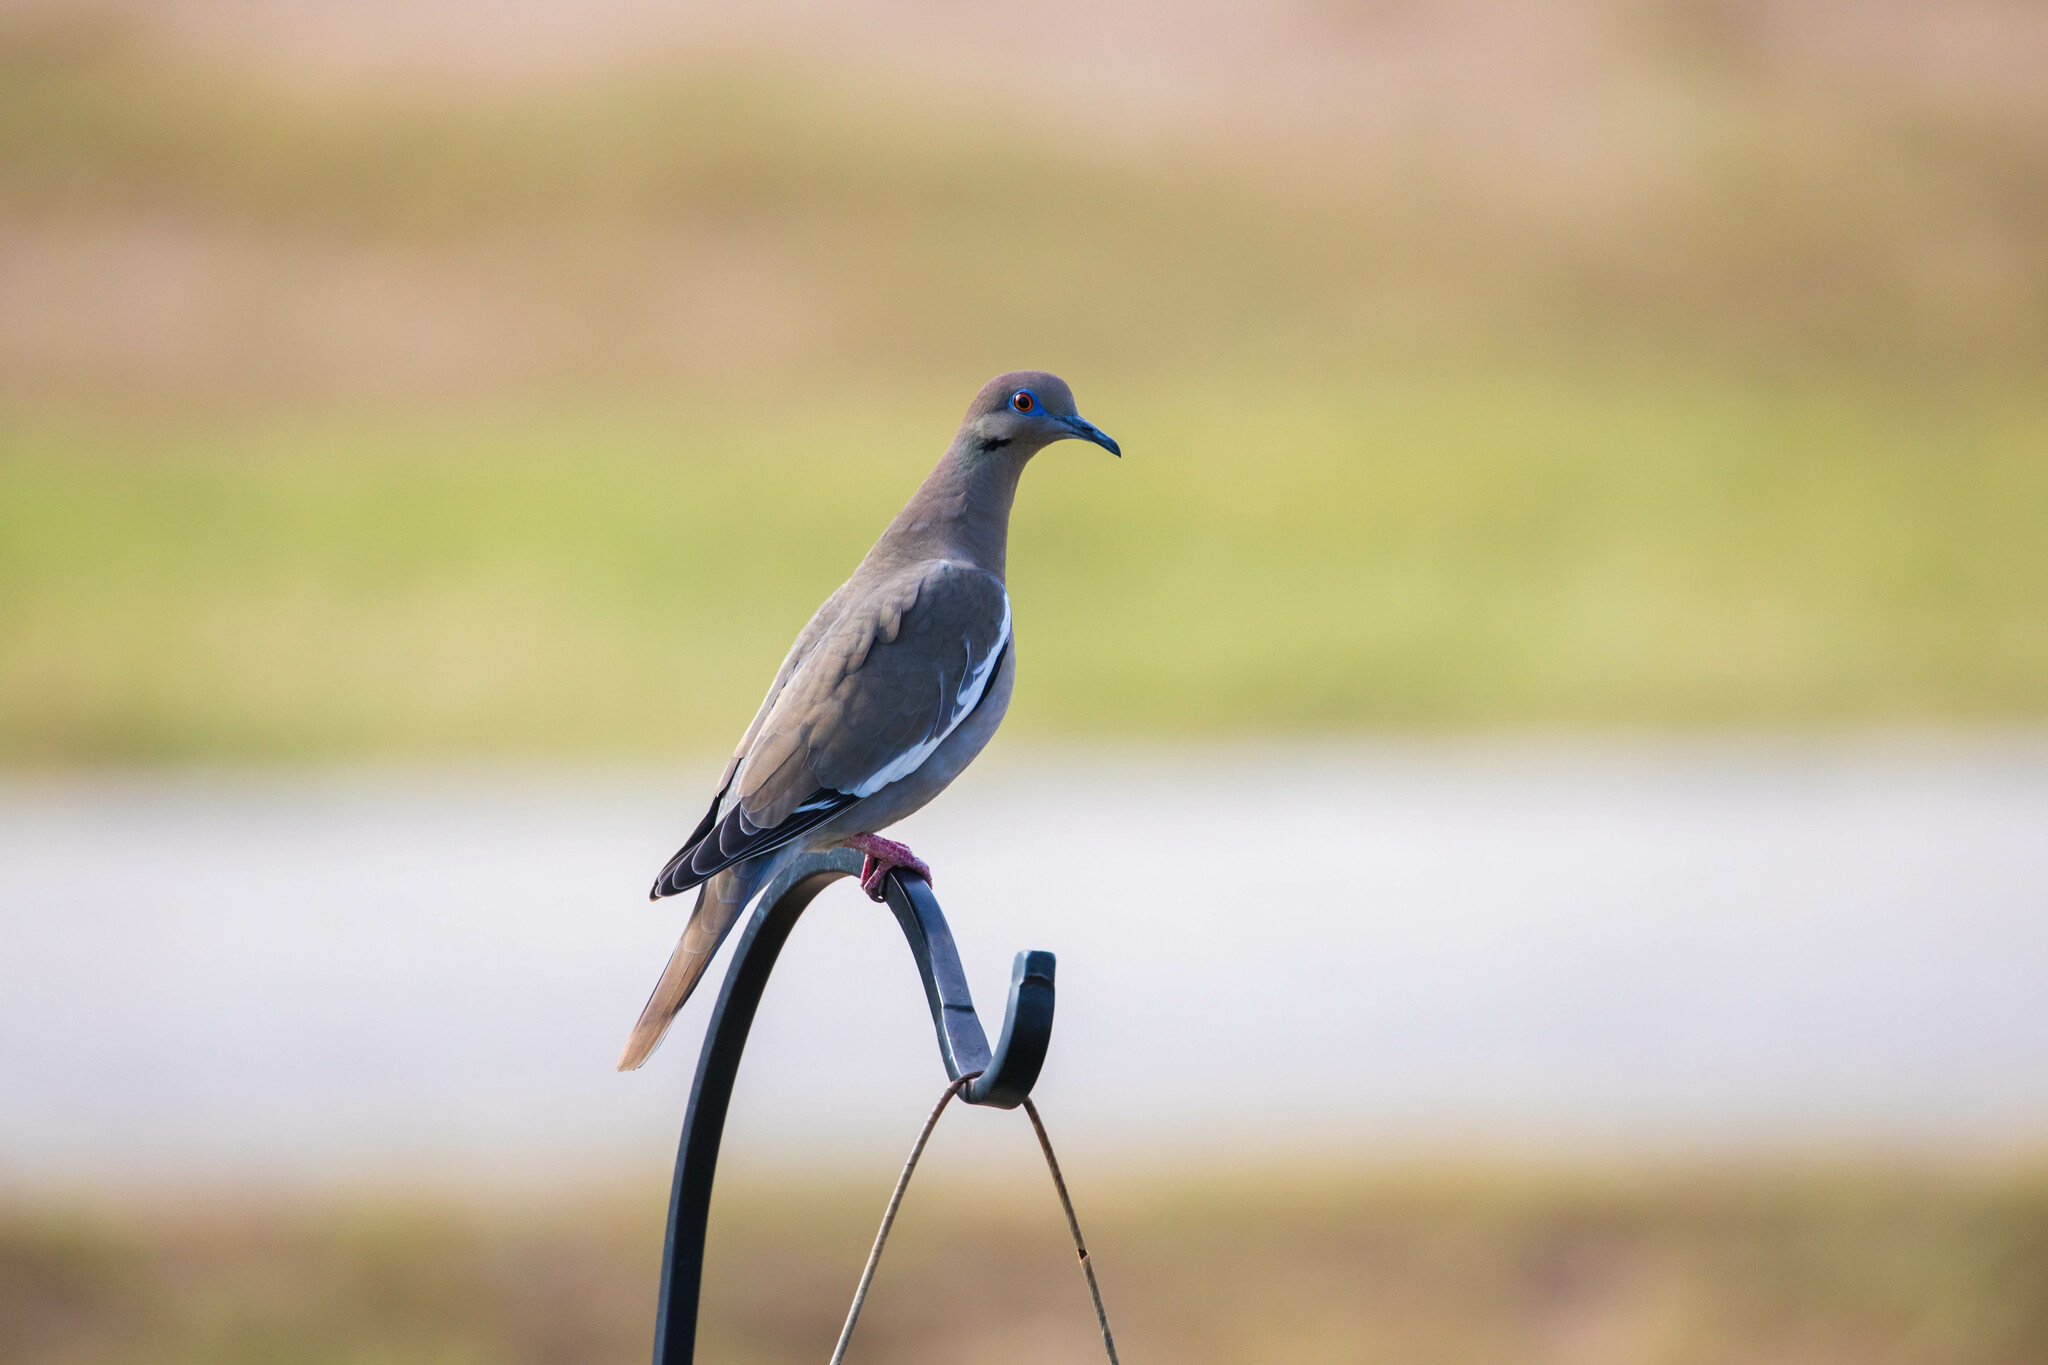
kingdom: Animalia
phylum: Chordata
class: Aves
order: Columbiformes
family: Columbidae
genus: Zenaida
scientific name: Zenaida asiatica
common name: White-winged dove
